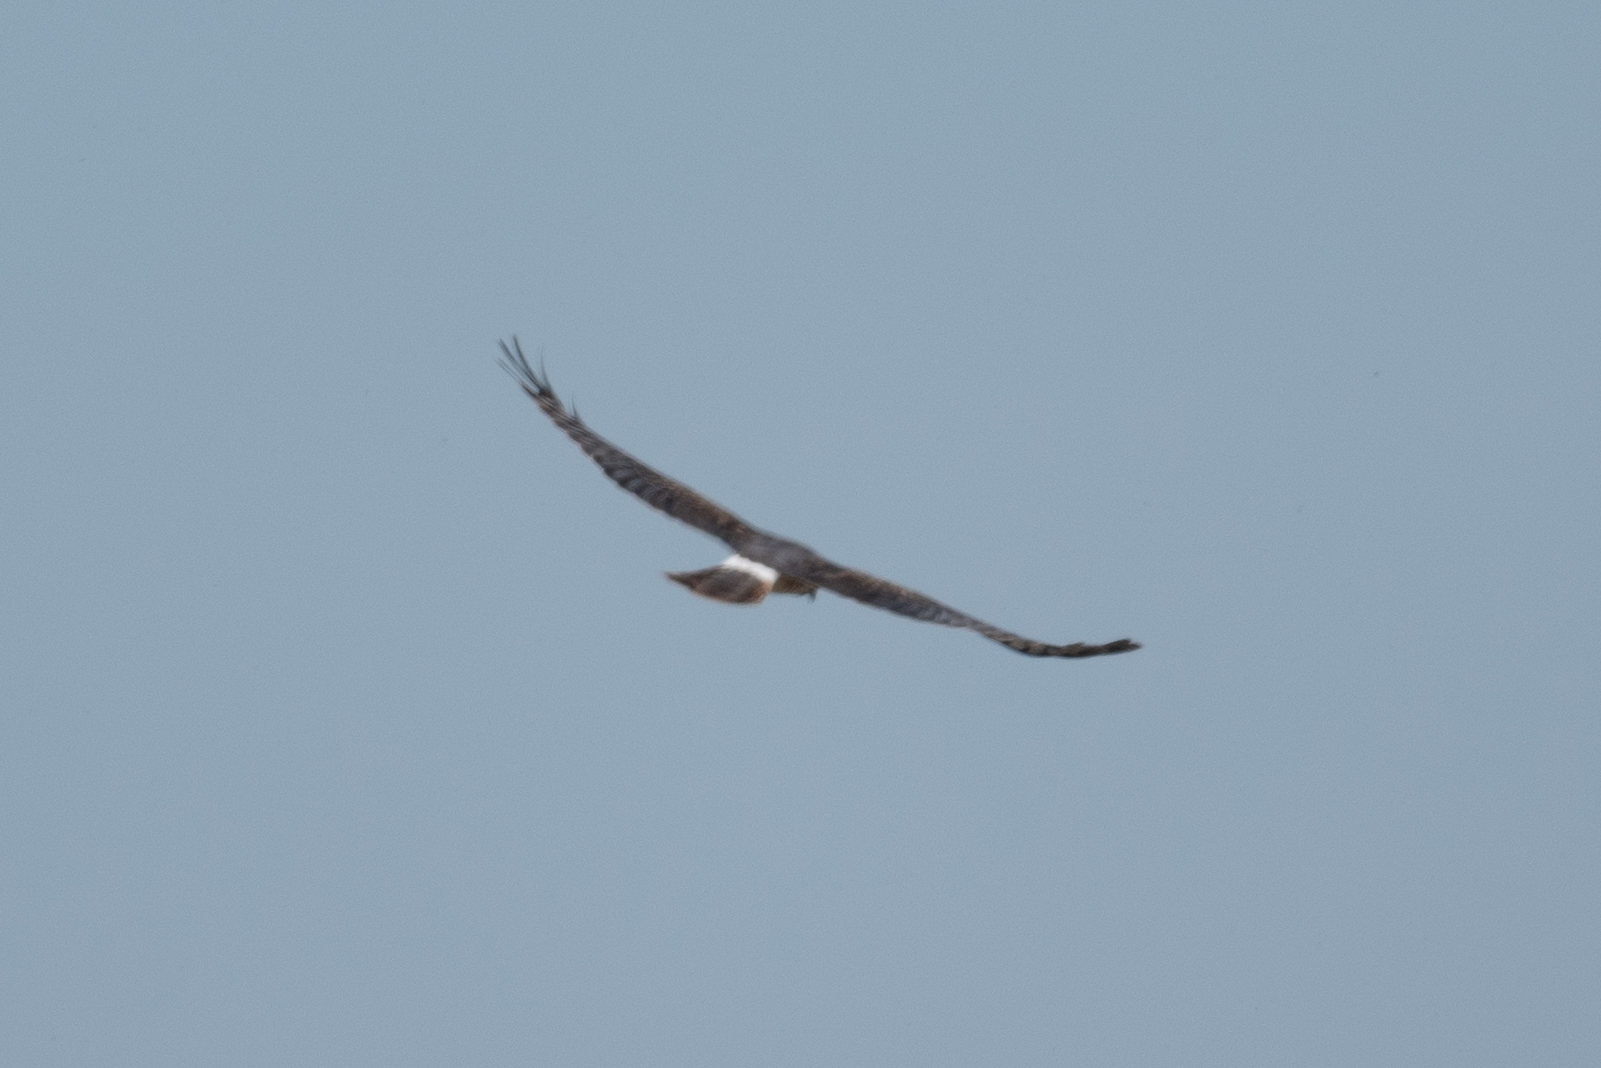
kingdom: Animalia
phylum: Chordata
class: Aves
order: Accipitriformes
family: Accipitridae
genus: Circus
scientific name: Circus cyaneus
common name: Hen harrier
